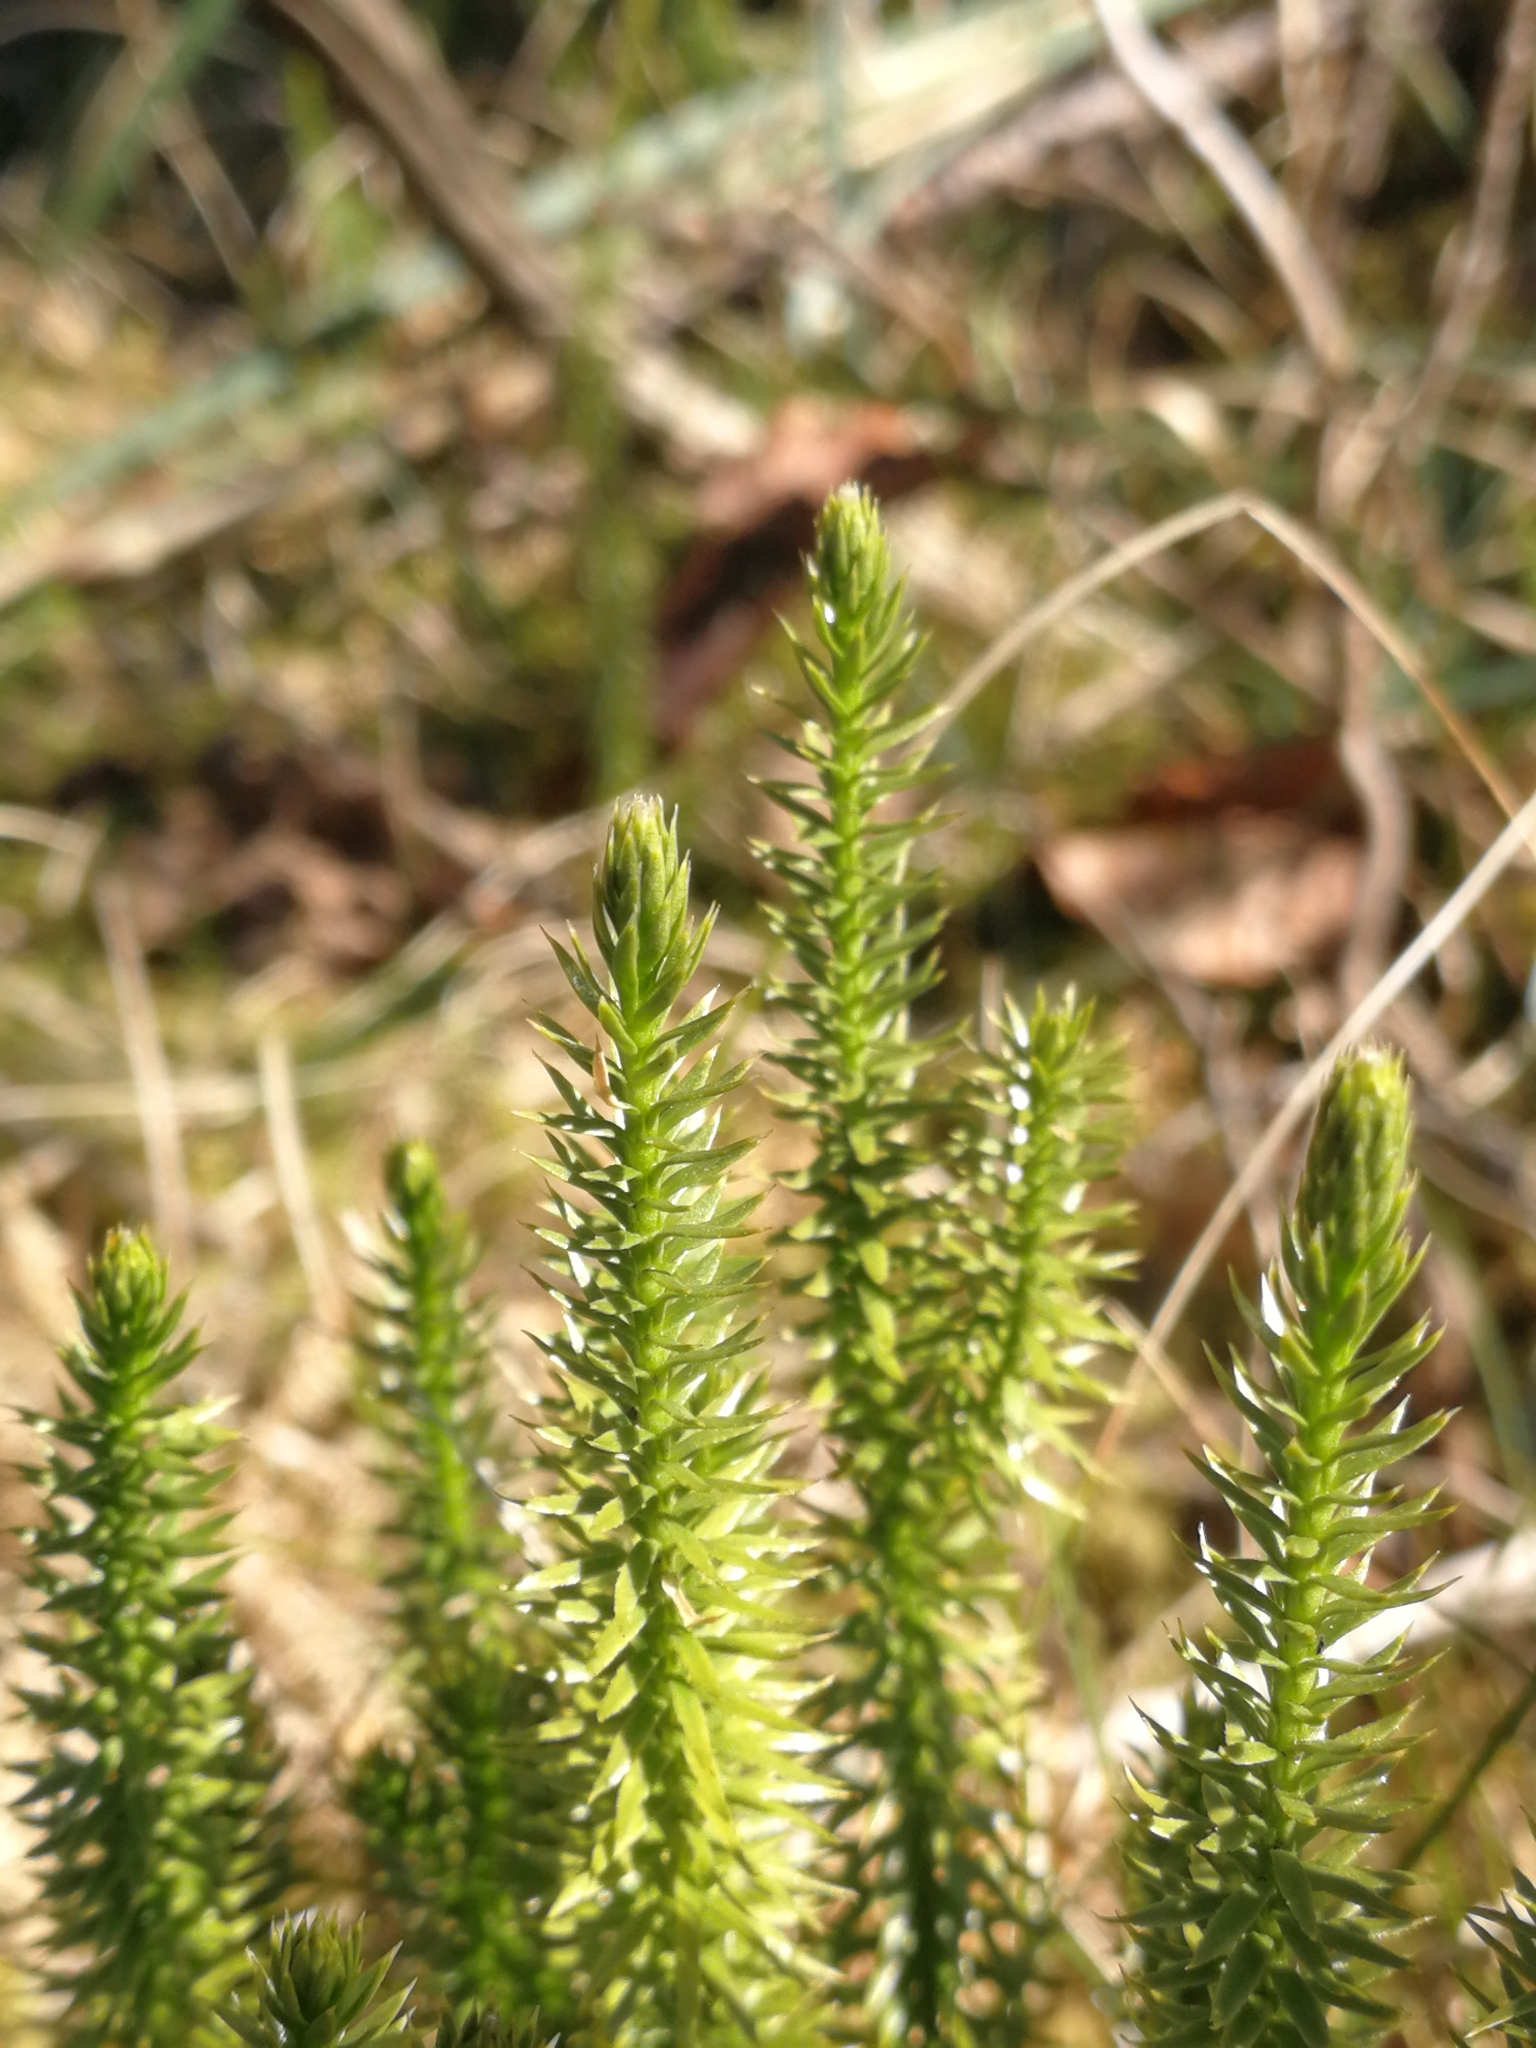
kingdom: Plantae
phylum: Tracheophyta
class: Lycopodiopsida
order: Lycopodiales
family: Lycopodiaceae
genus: Spinulum
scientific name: Spinulum annotinum
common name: Interrupted club-moss
